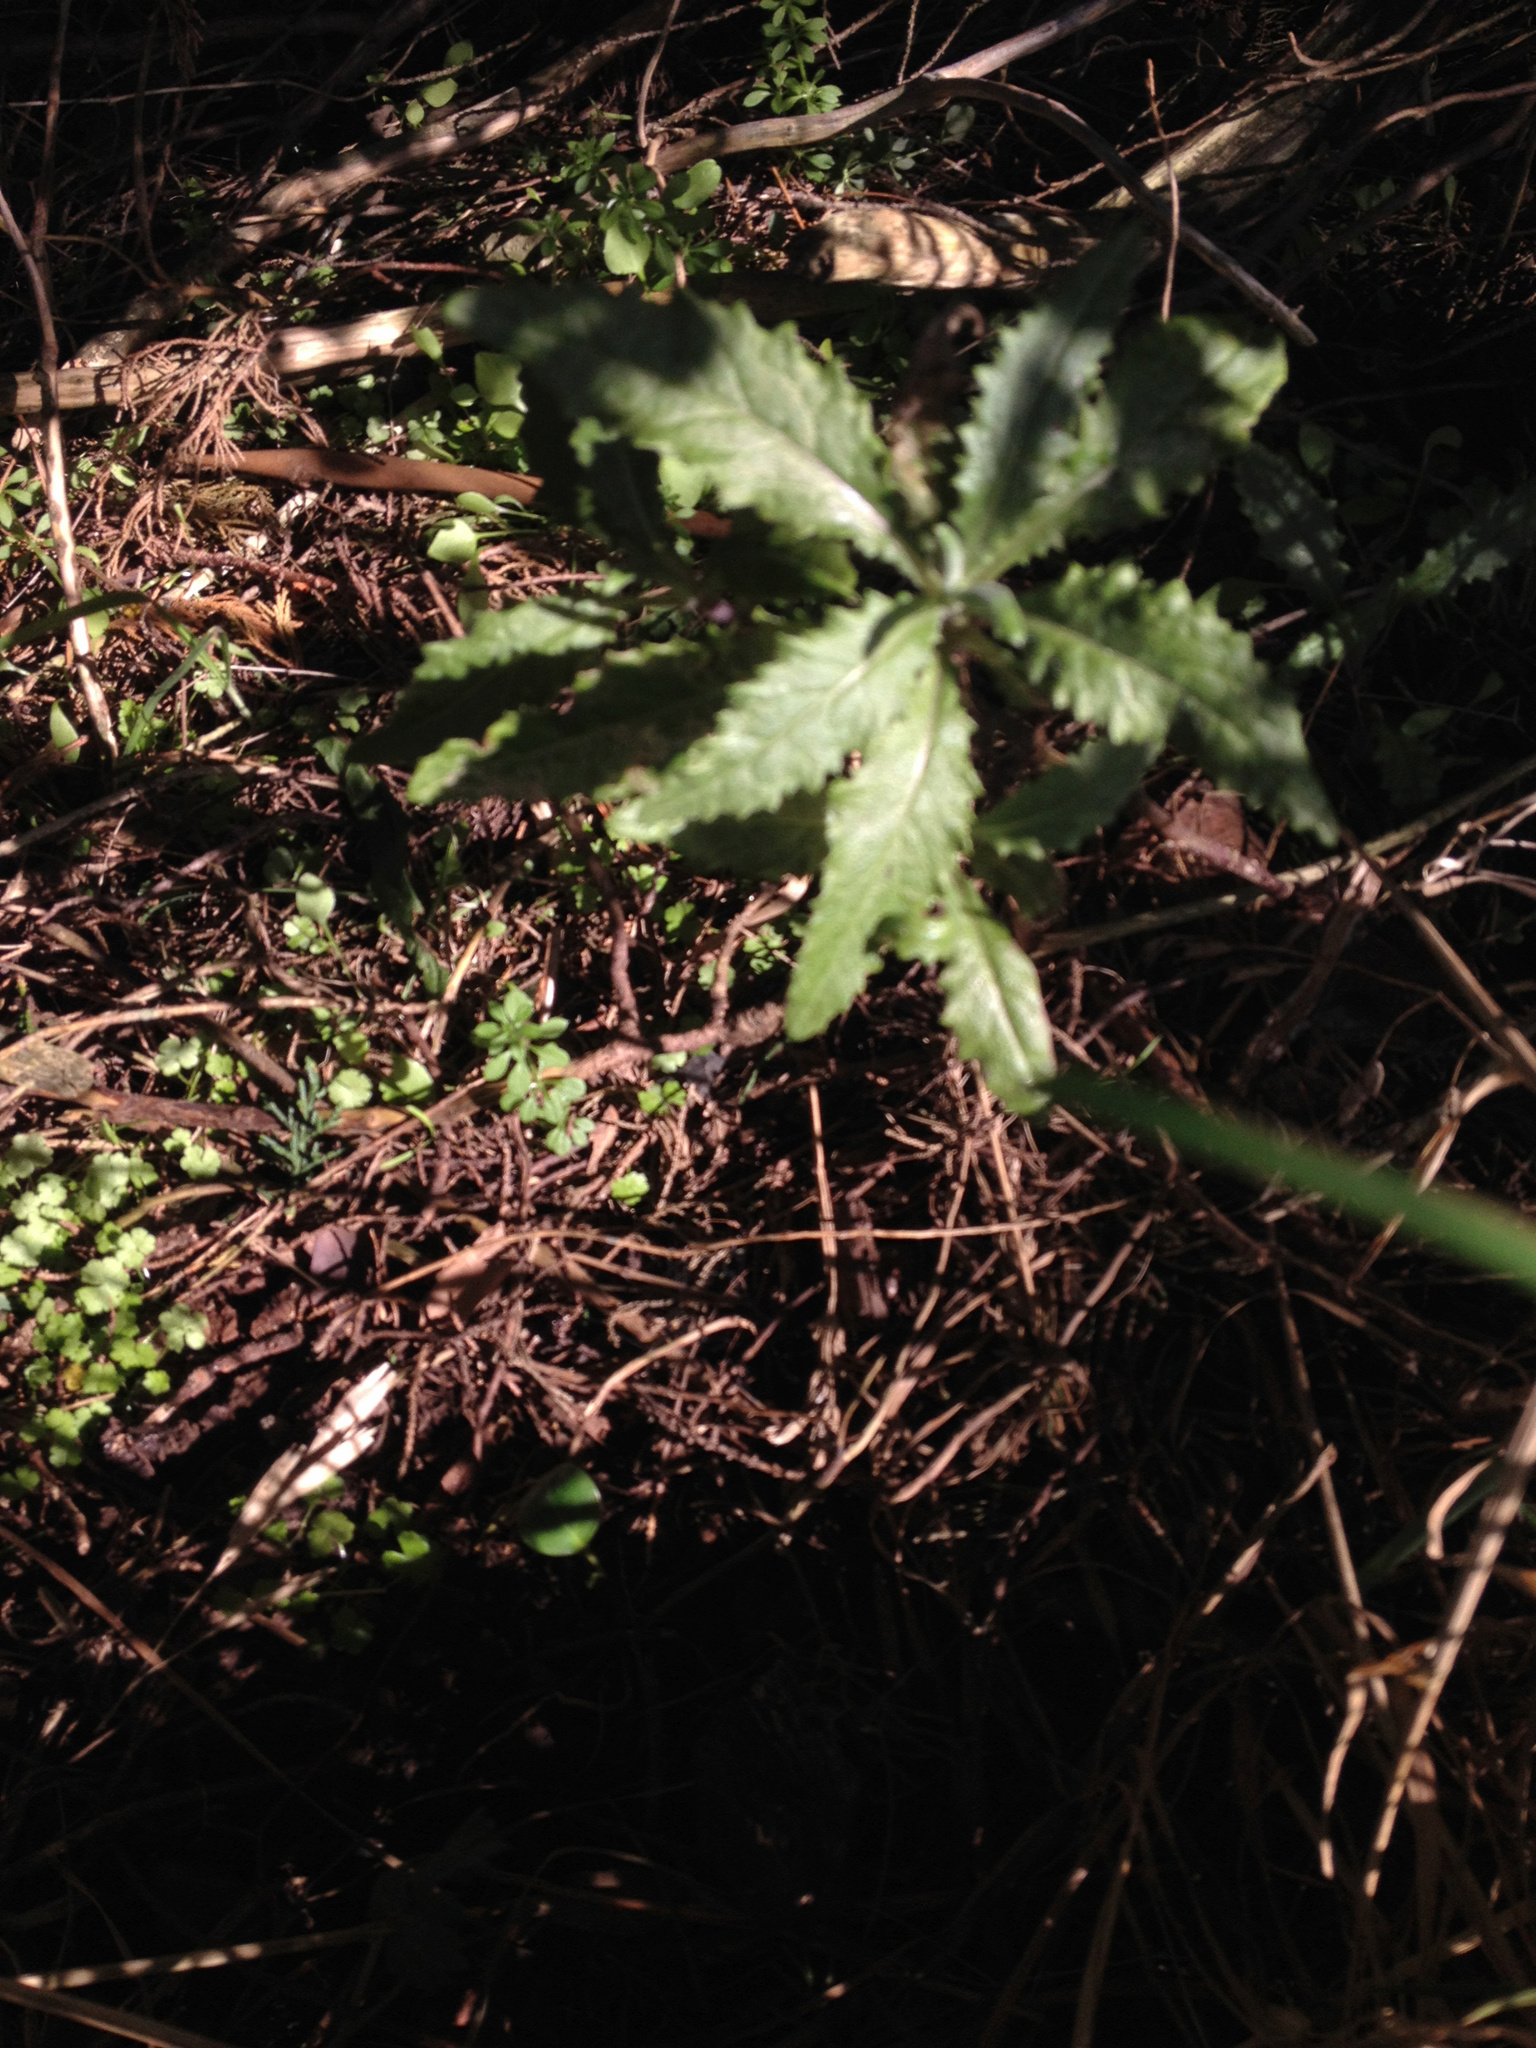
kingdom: Plantae
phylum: Tracheophyta
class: Magnoliopsida
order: Asterales
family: Asteraceae
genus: Senecio
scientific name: Senecio minimus
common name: Toothed fireweed
